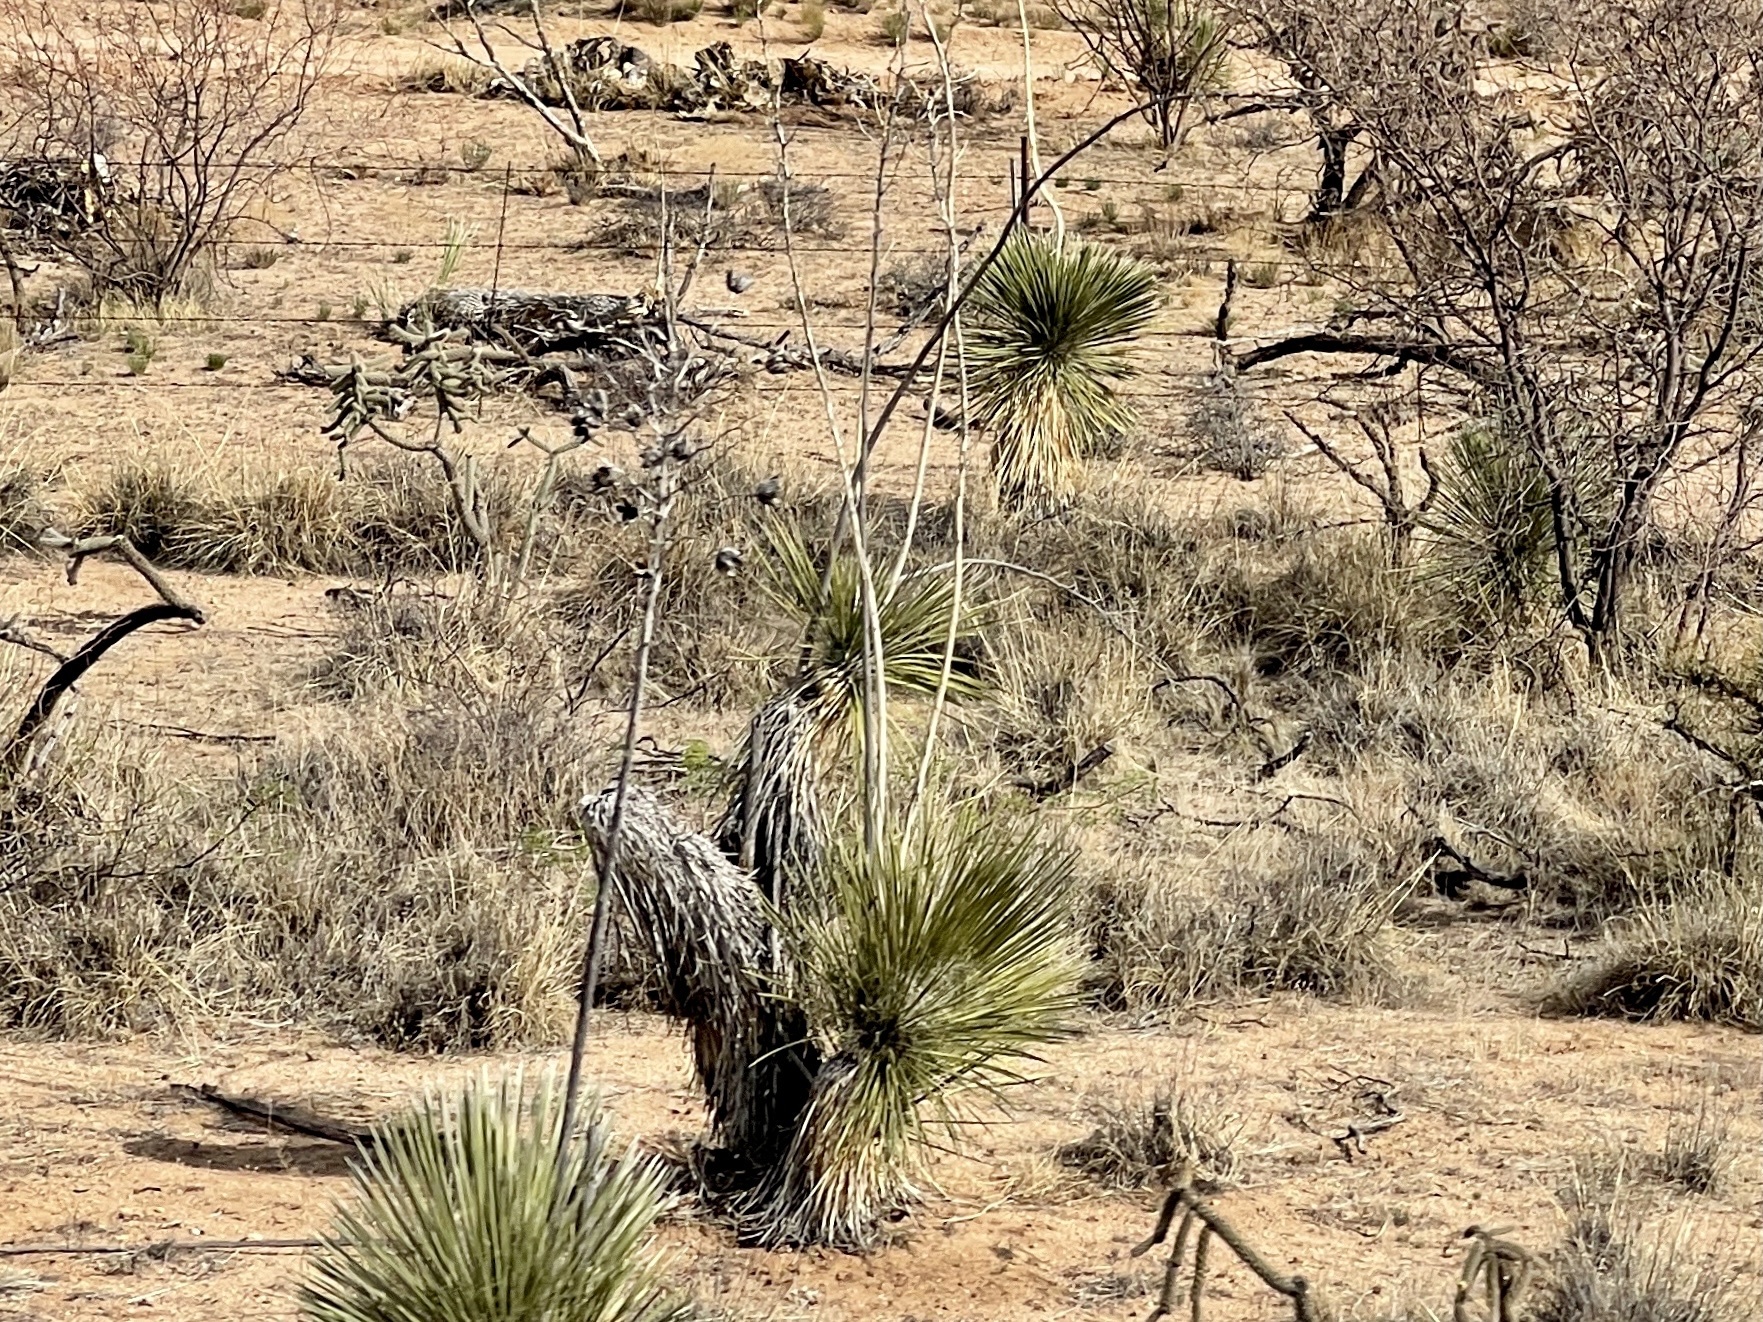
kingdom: Plantae
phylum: Tracheophyta
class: Liliopsida
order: Asparagales
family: Asparagaceae
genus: Yucca
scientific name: Yucca elata
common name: Palmella
